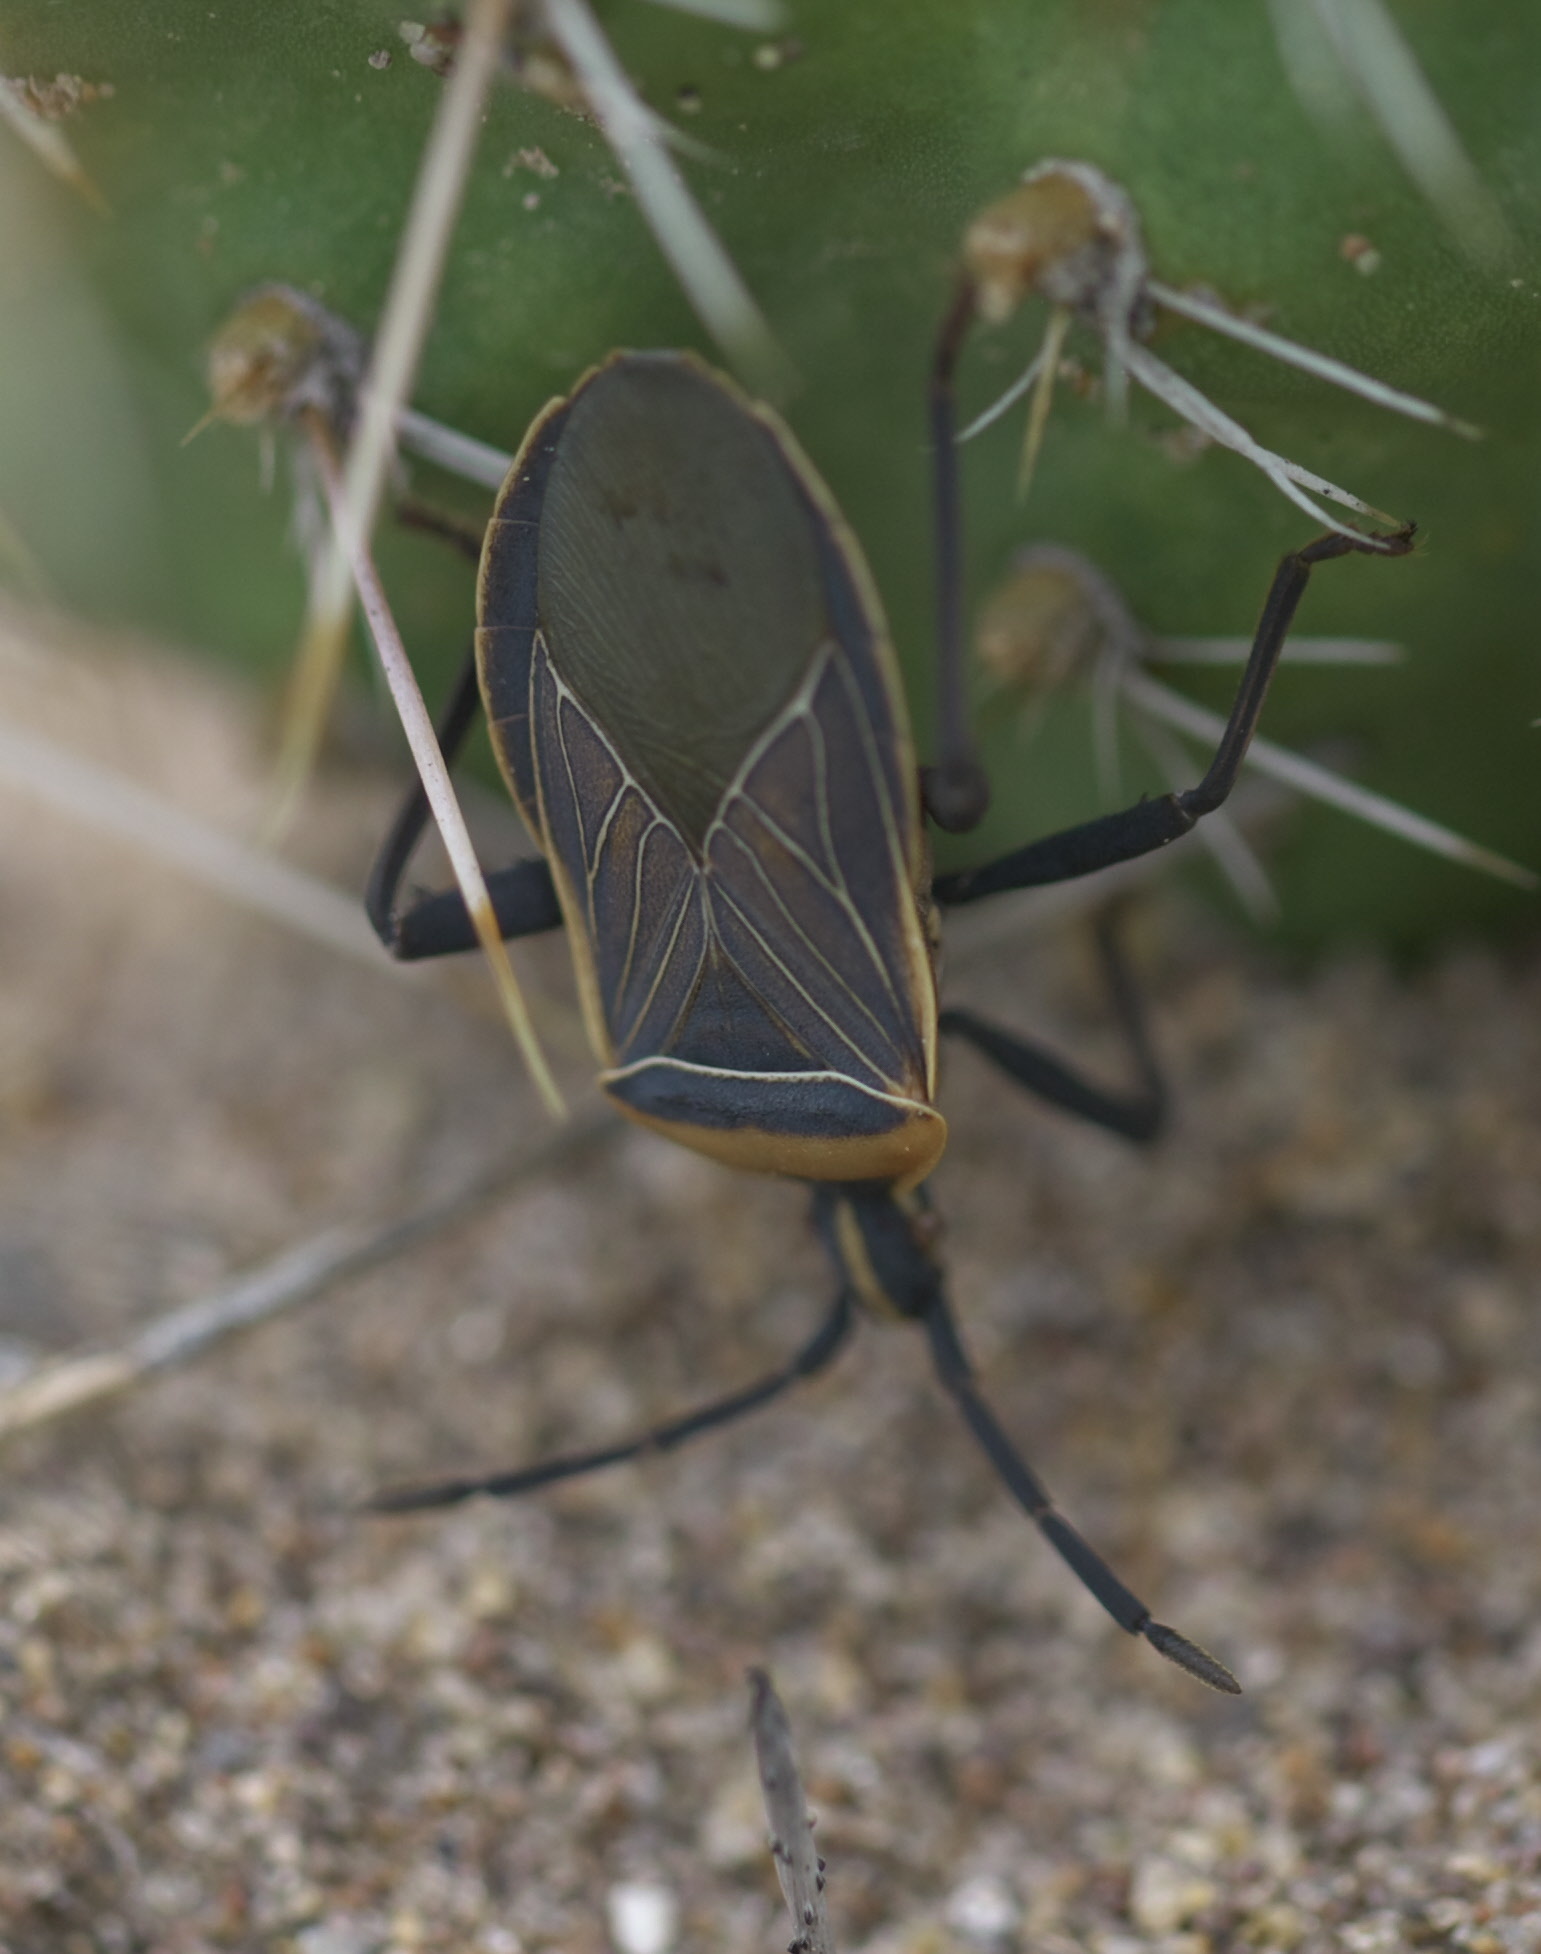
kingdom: Animalia
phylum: Arthropoda
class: Insecta
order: Hemiptera
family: Coreidae
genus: Chelinidea
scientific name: Chelinidea vittiger
